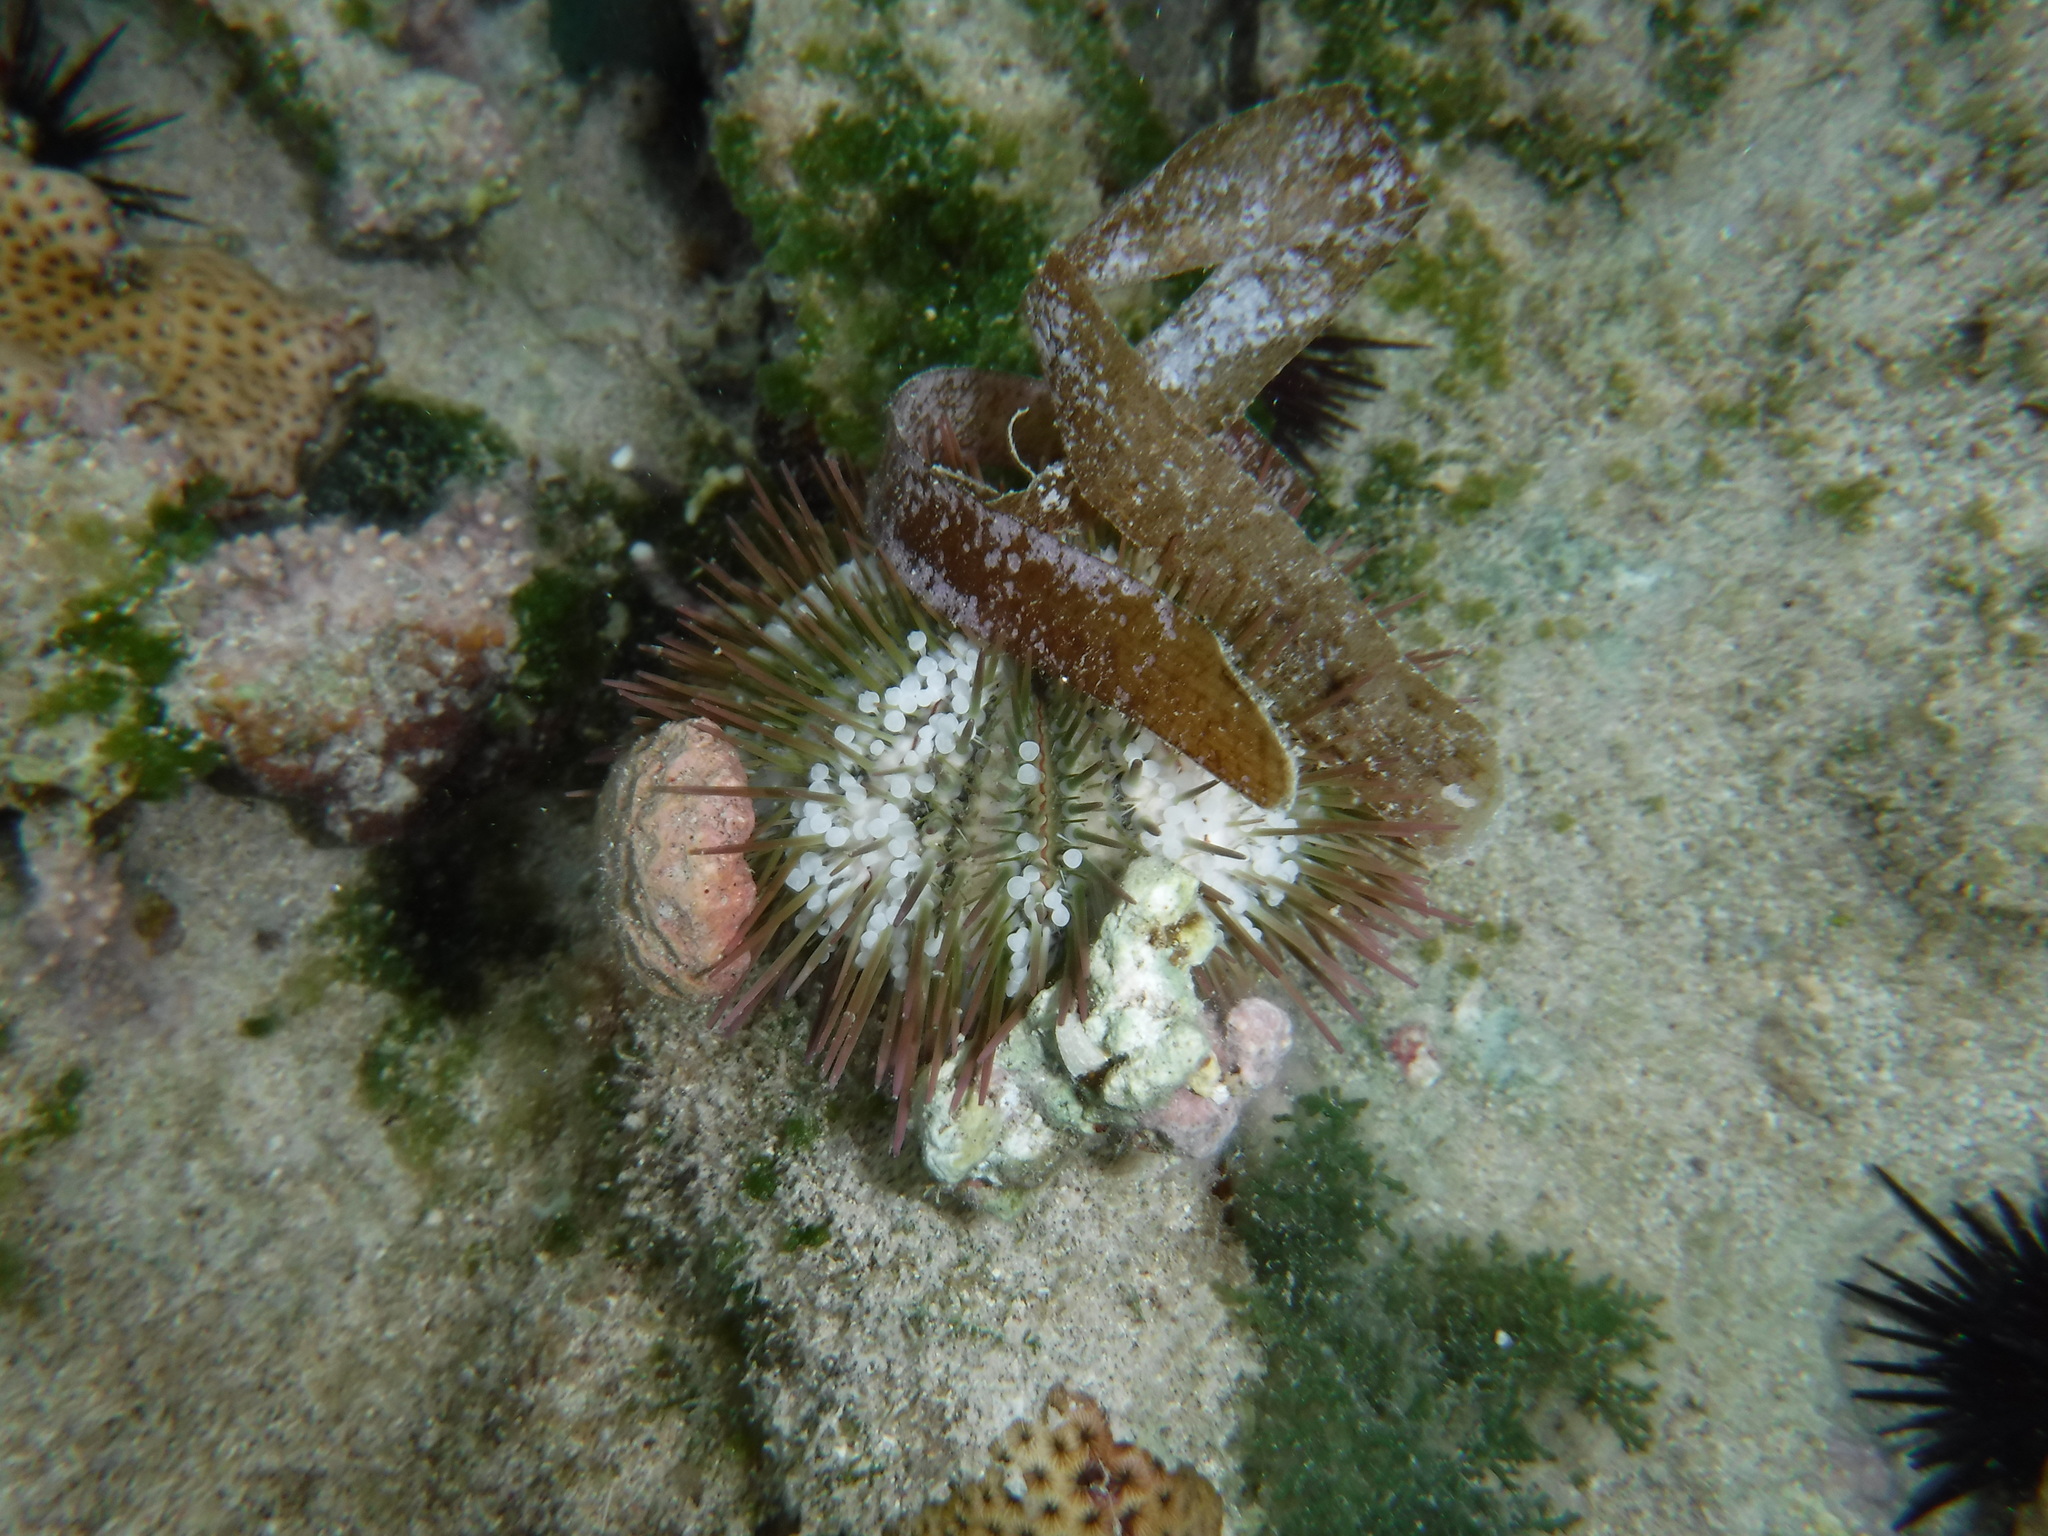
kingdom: Animalia
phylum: Echinodermata
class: Echinoidea
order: Camarodonta
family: Toxopneustidae
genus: Lytechinus
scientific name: Lytechinus variegatus
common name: Variegated urchin
